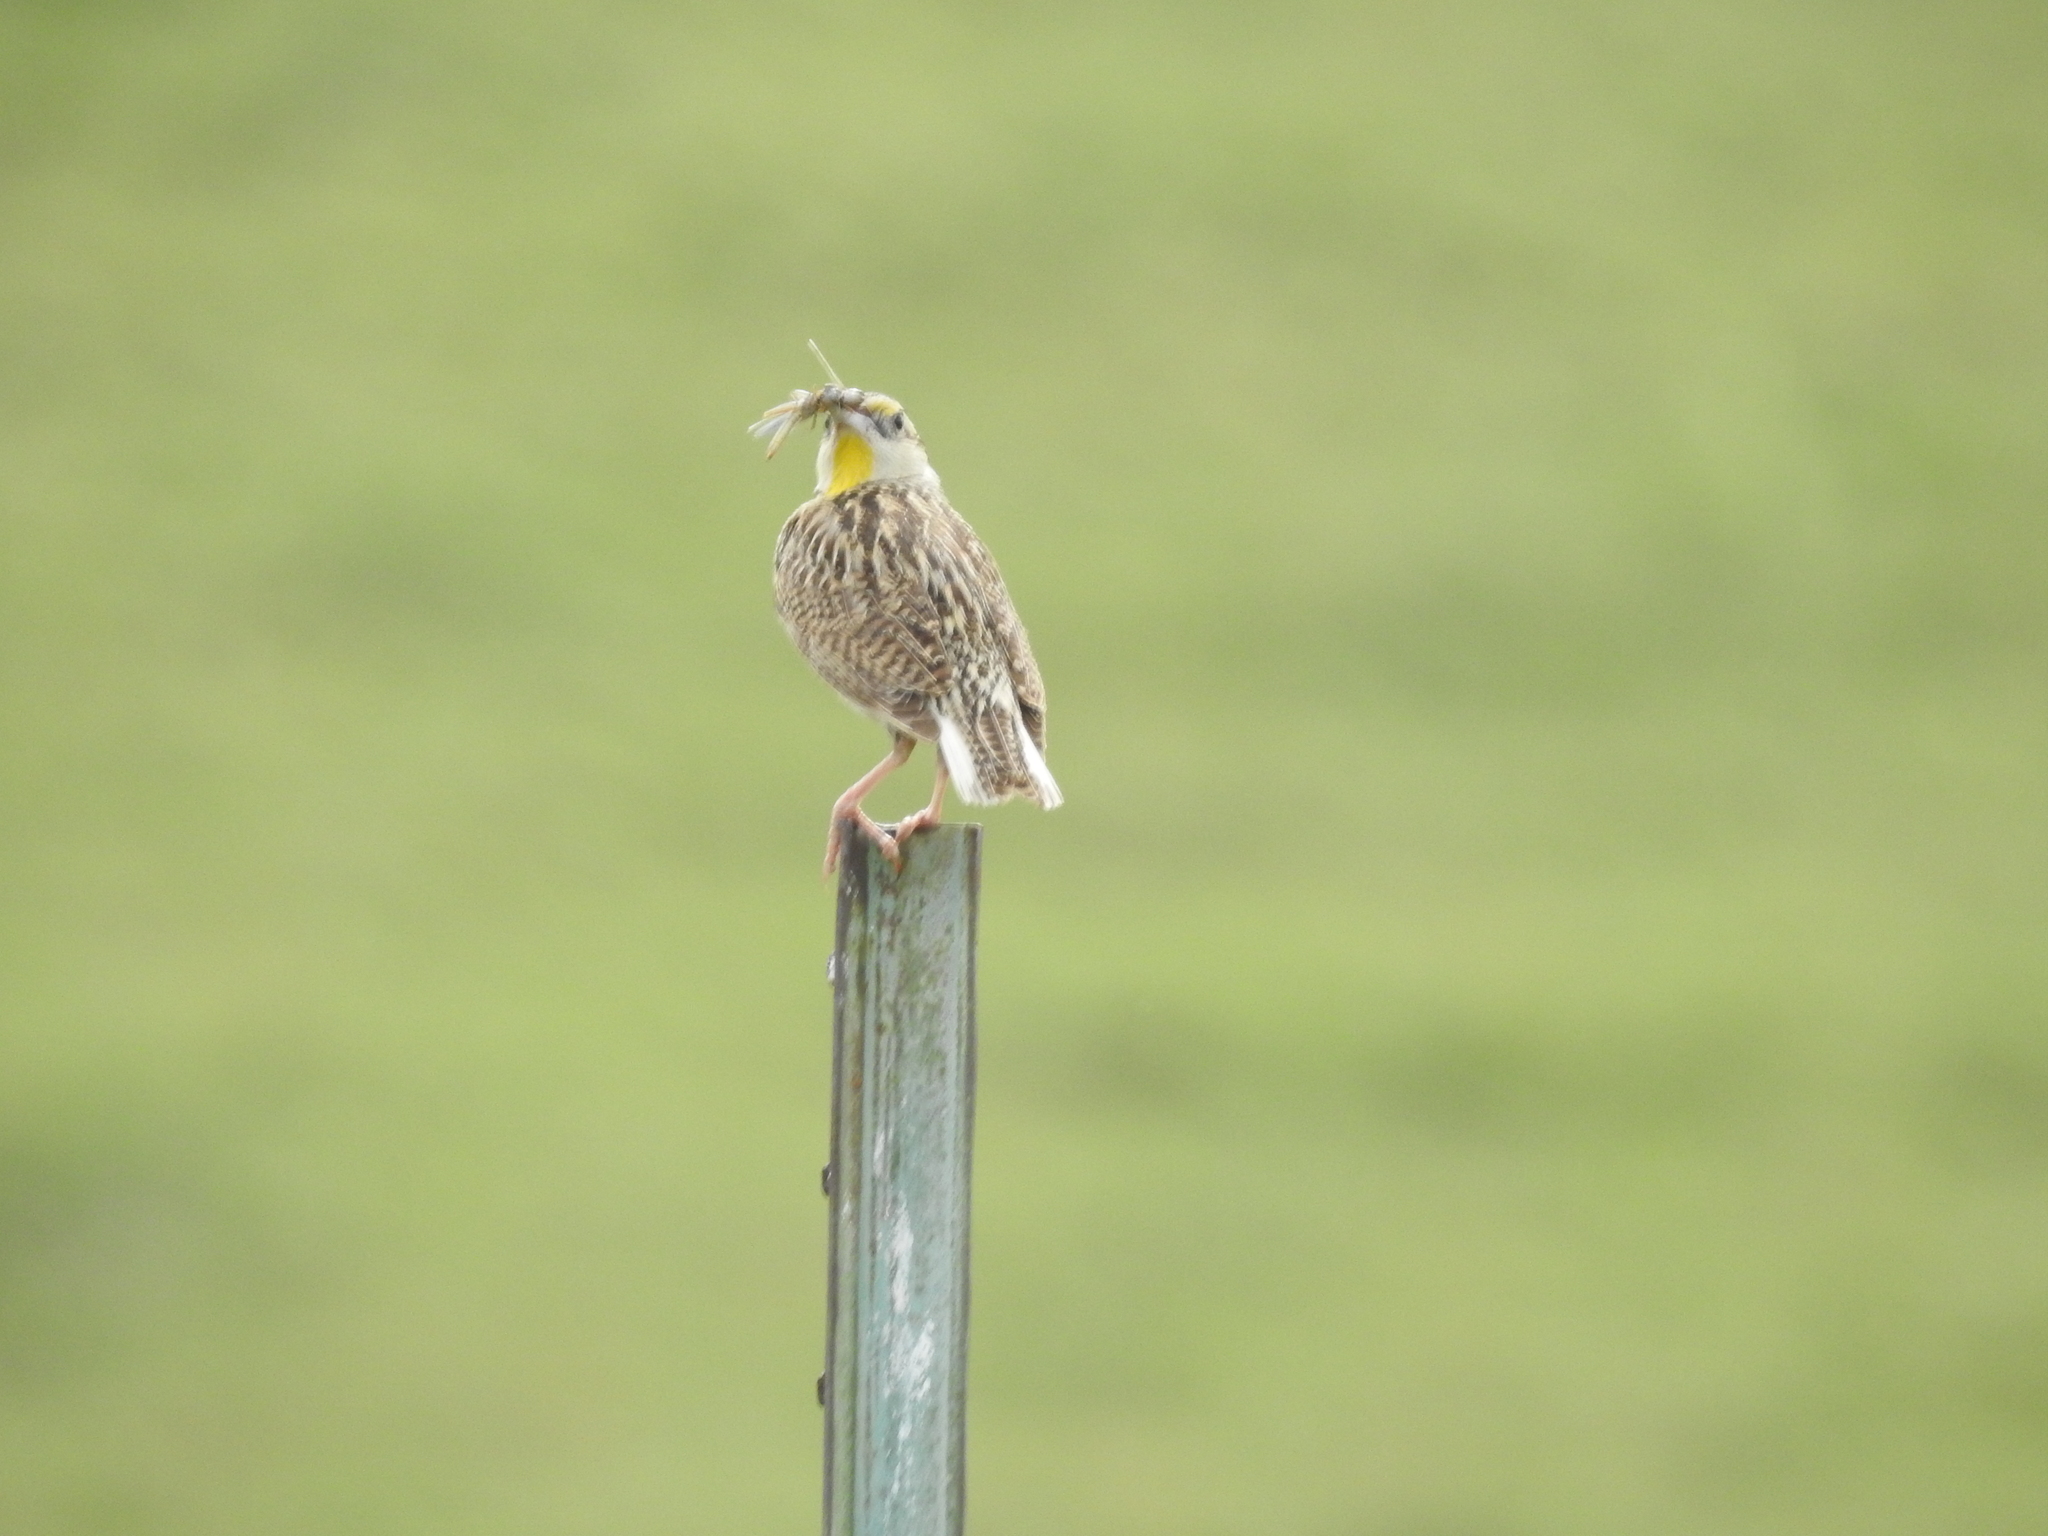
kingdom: Animalia
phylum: Chordata
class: Aves
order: Passeriformes
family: Icteridae
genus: Sturnella
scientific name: Sturnella lilianae
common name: Lilian's meadowlark
